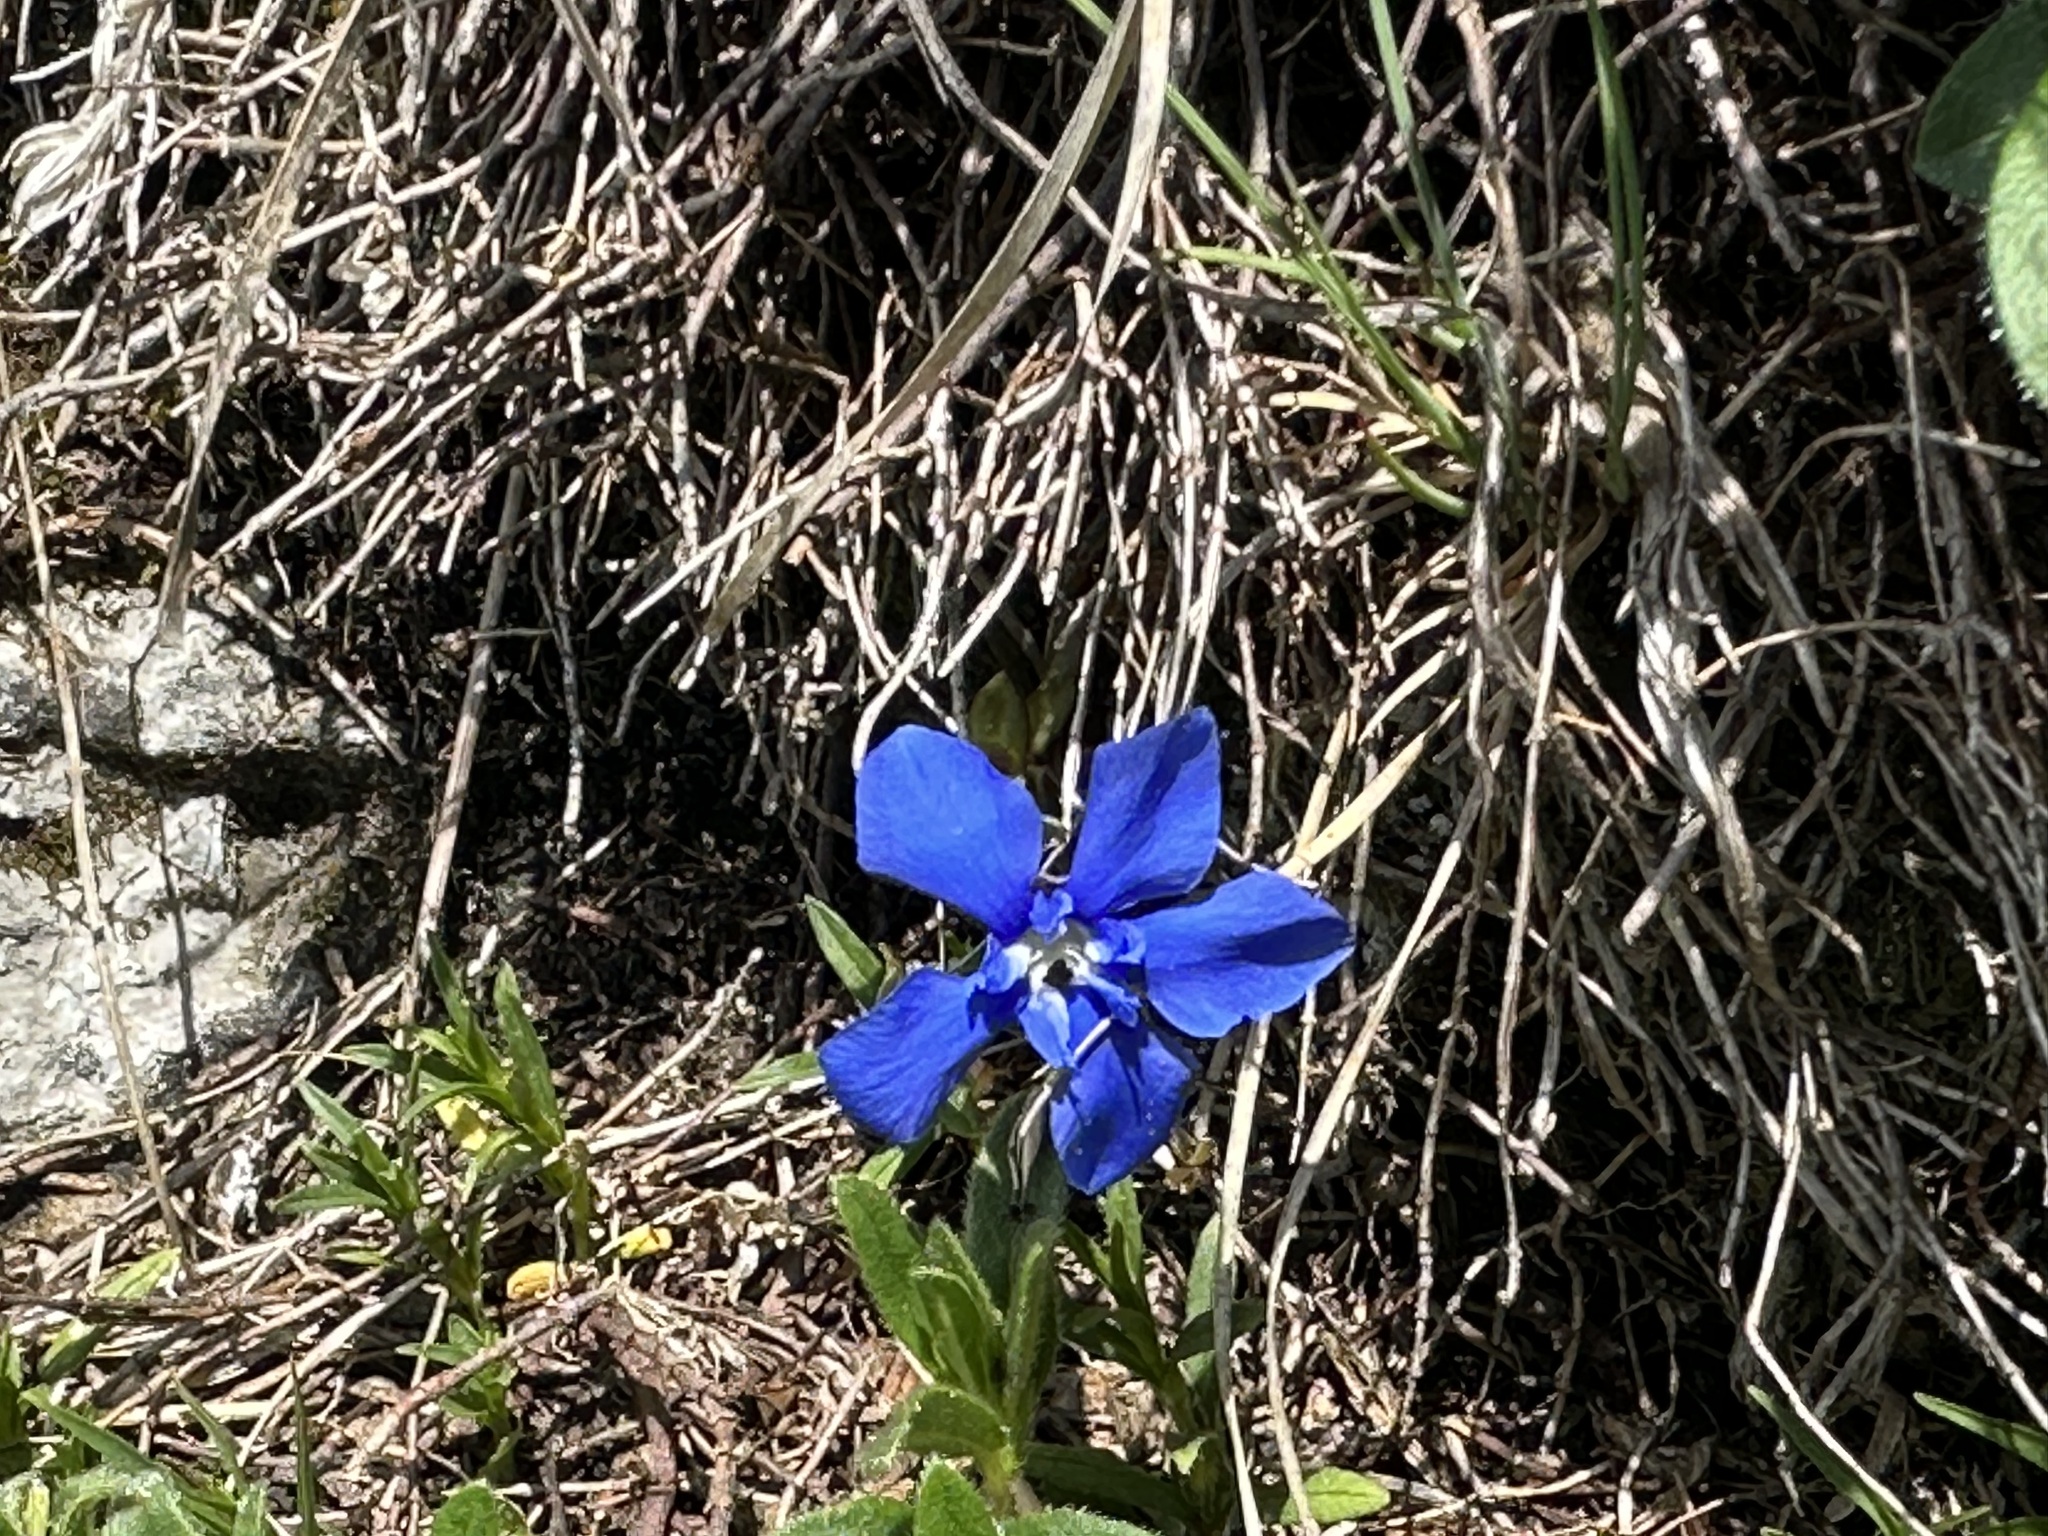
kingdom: Plantae
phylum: Tracheophyta
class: Magnoliopsida
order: Gentianales
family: Gentianaceae
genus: Gentiana
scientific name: Gentiana verna
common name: Spring gentian
